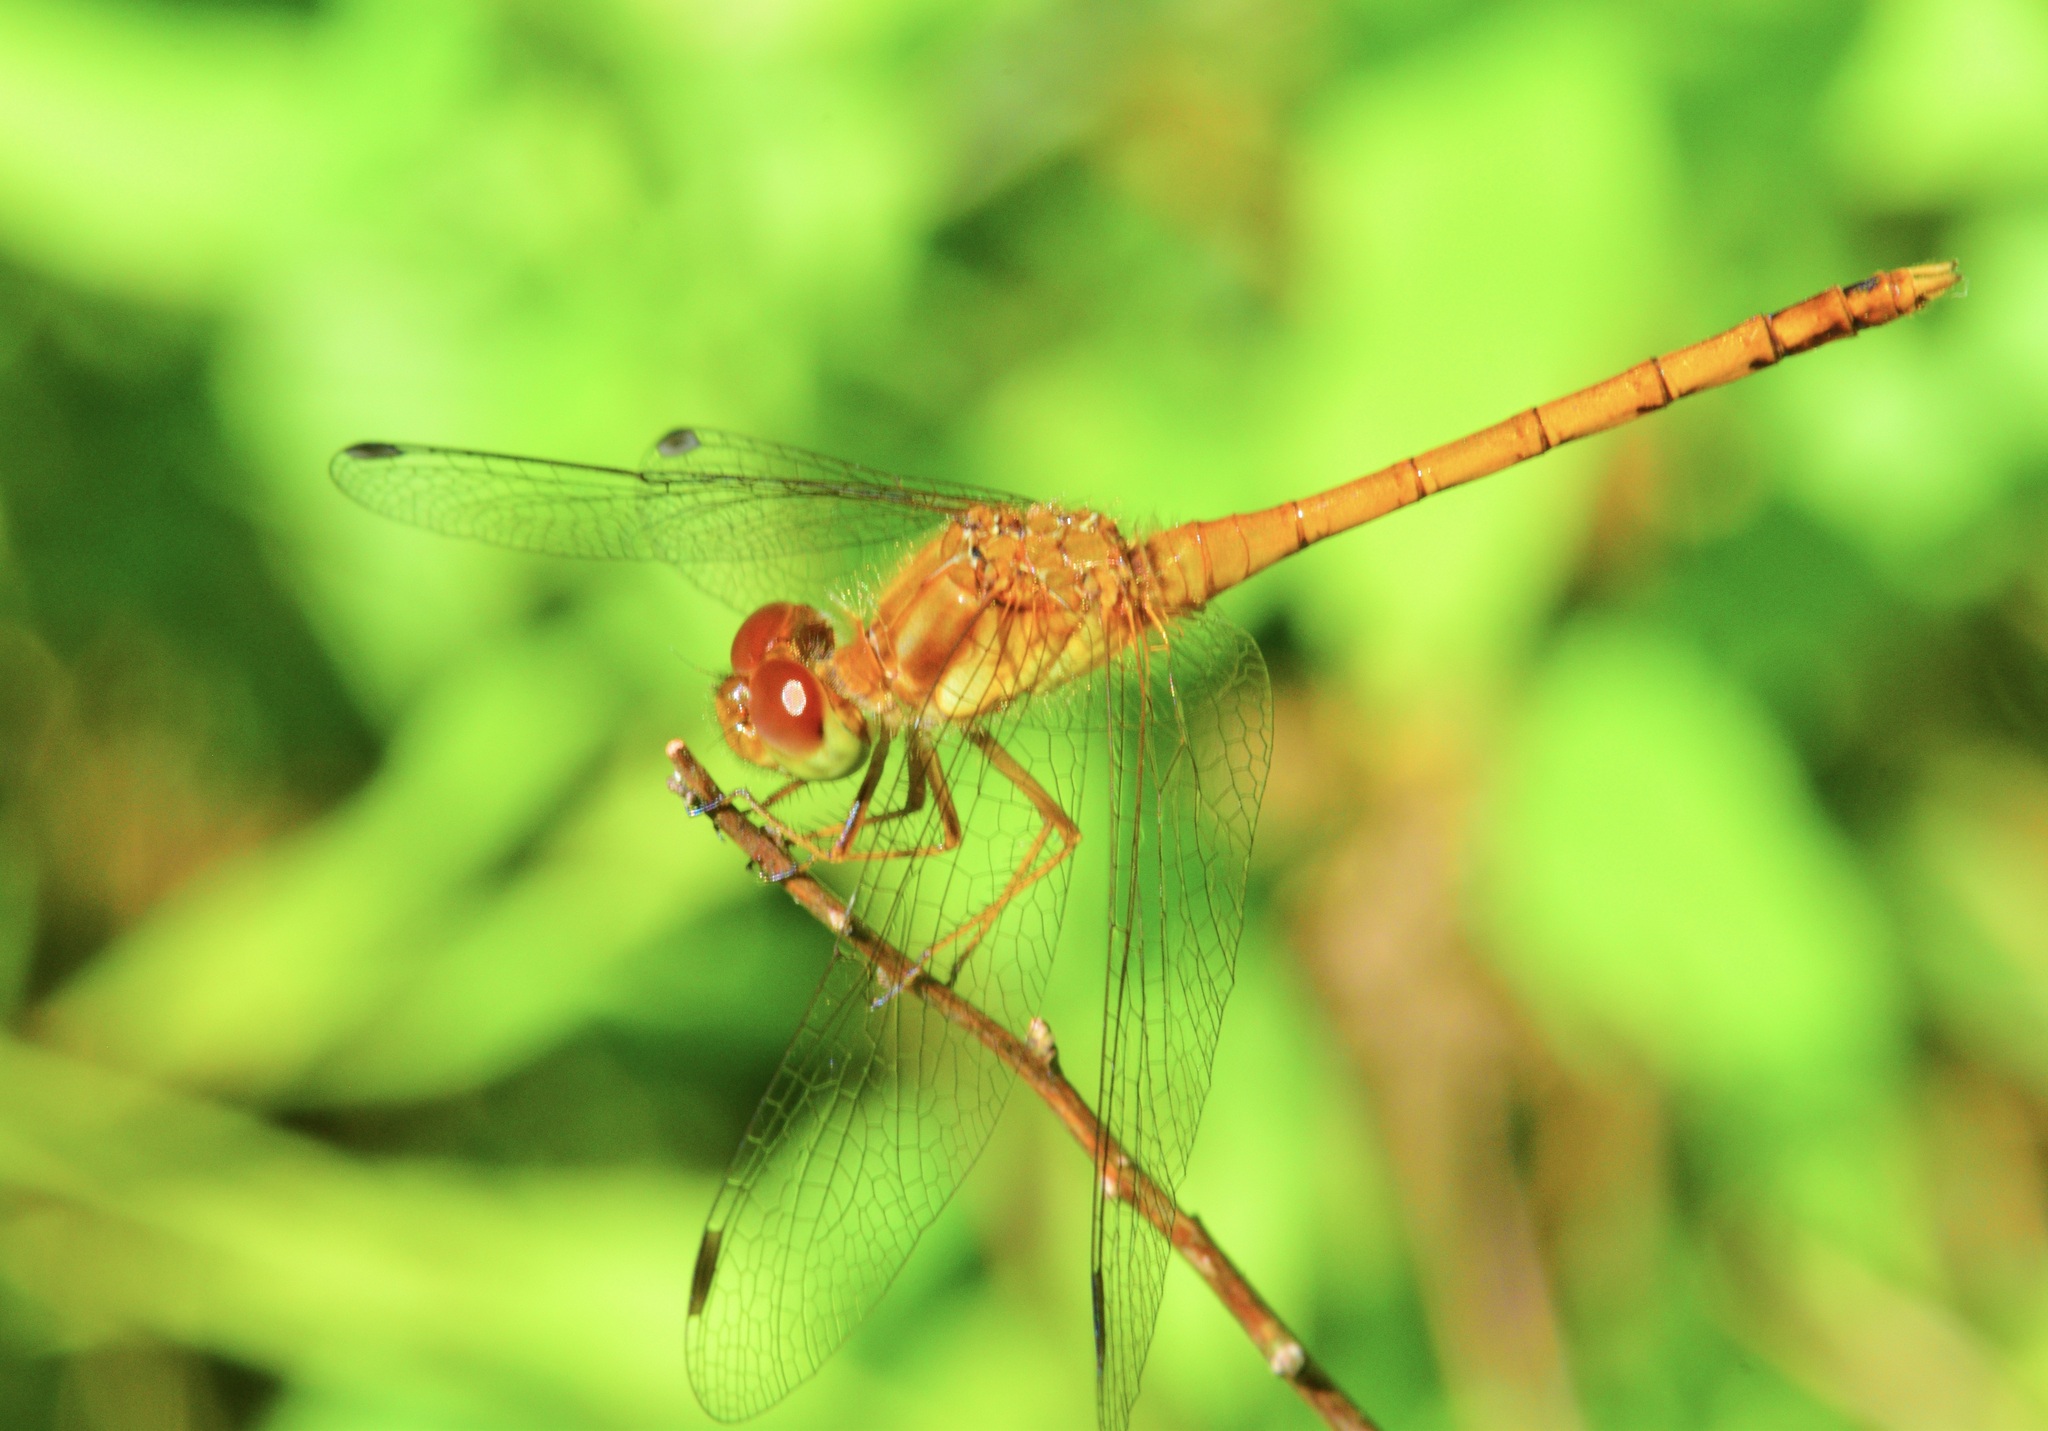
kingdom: Animalia
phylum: Arthropoda
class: Insecta
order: Odonata
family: Libellulidae
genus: Sympetrum
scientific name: Sympetrum vicinum
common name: Autumn meadowhawk
